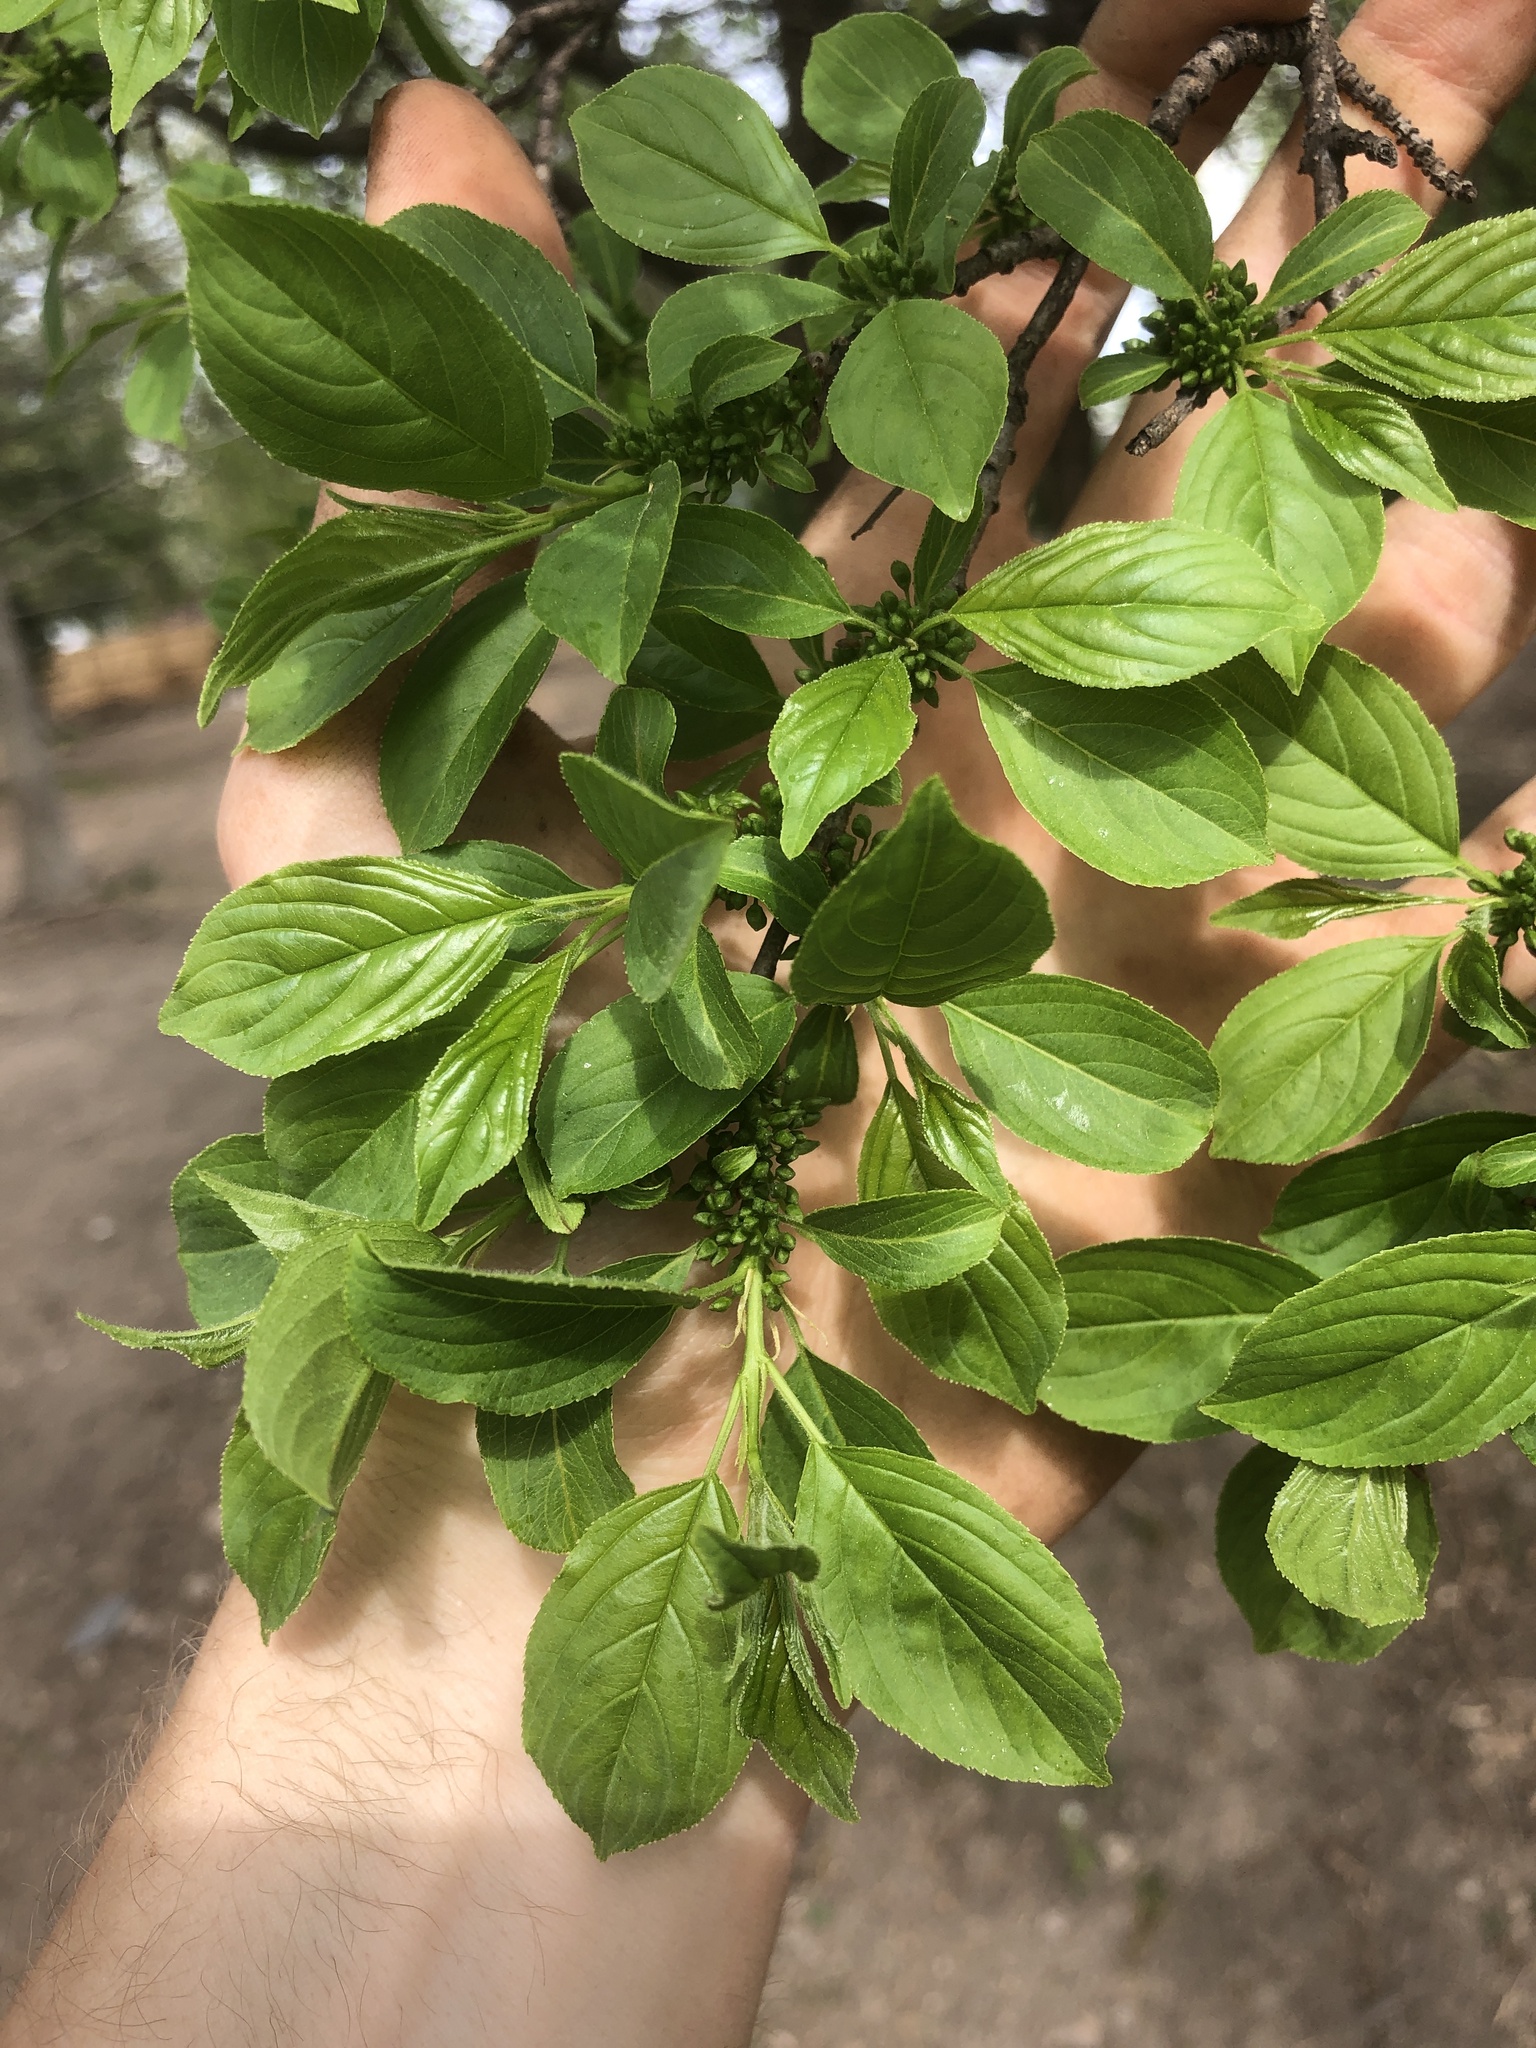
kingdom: Plantae
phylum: Tracheophyta
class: Magnoliopsida
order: Rosales
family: Rhamnaceae
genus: Rhamnus
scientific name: Rhamnus cathartica
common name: Common buckthorn
